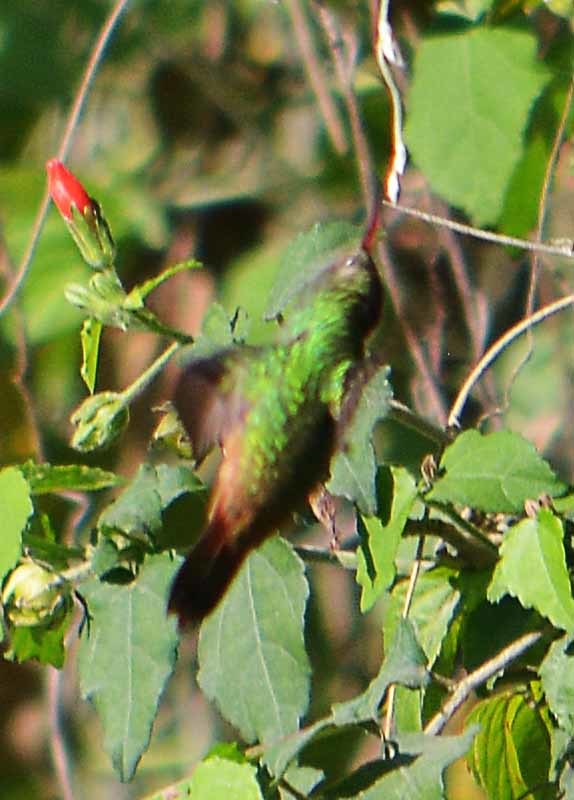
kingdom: Animalia
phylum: Chordata
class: Aves
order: Apodiformes
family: Trochilidae
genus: Amazilia
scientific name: Amazilia yucatanensis
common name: Buff-bellied hummingbird
